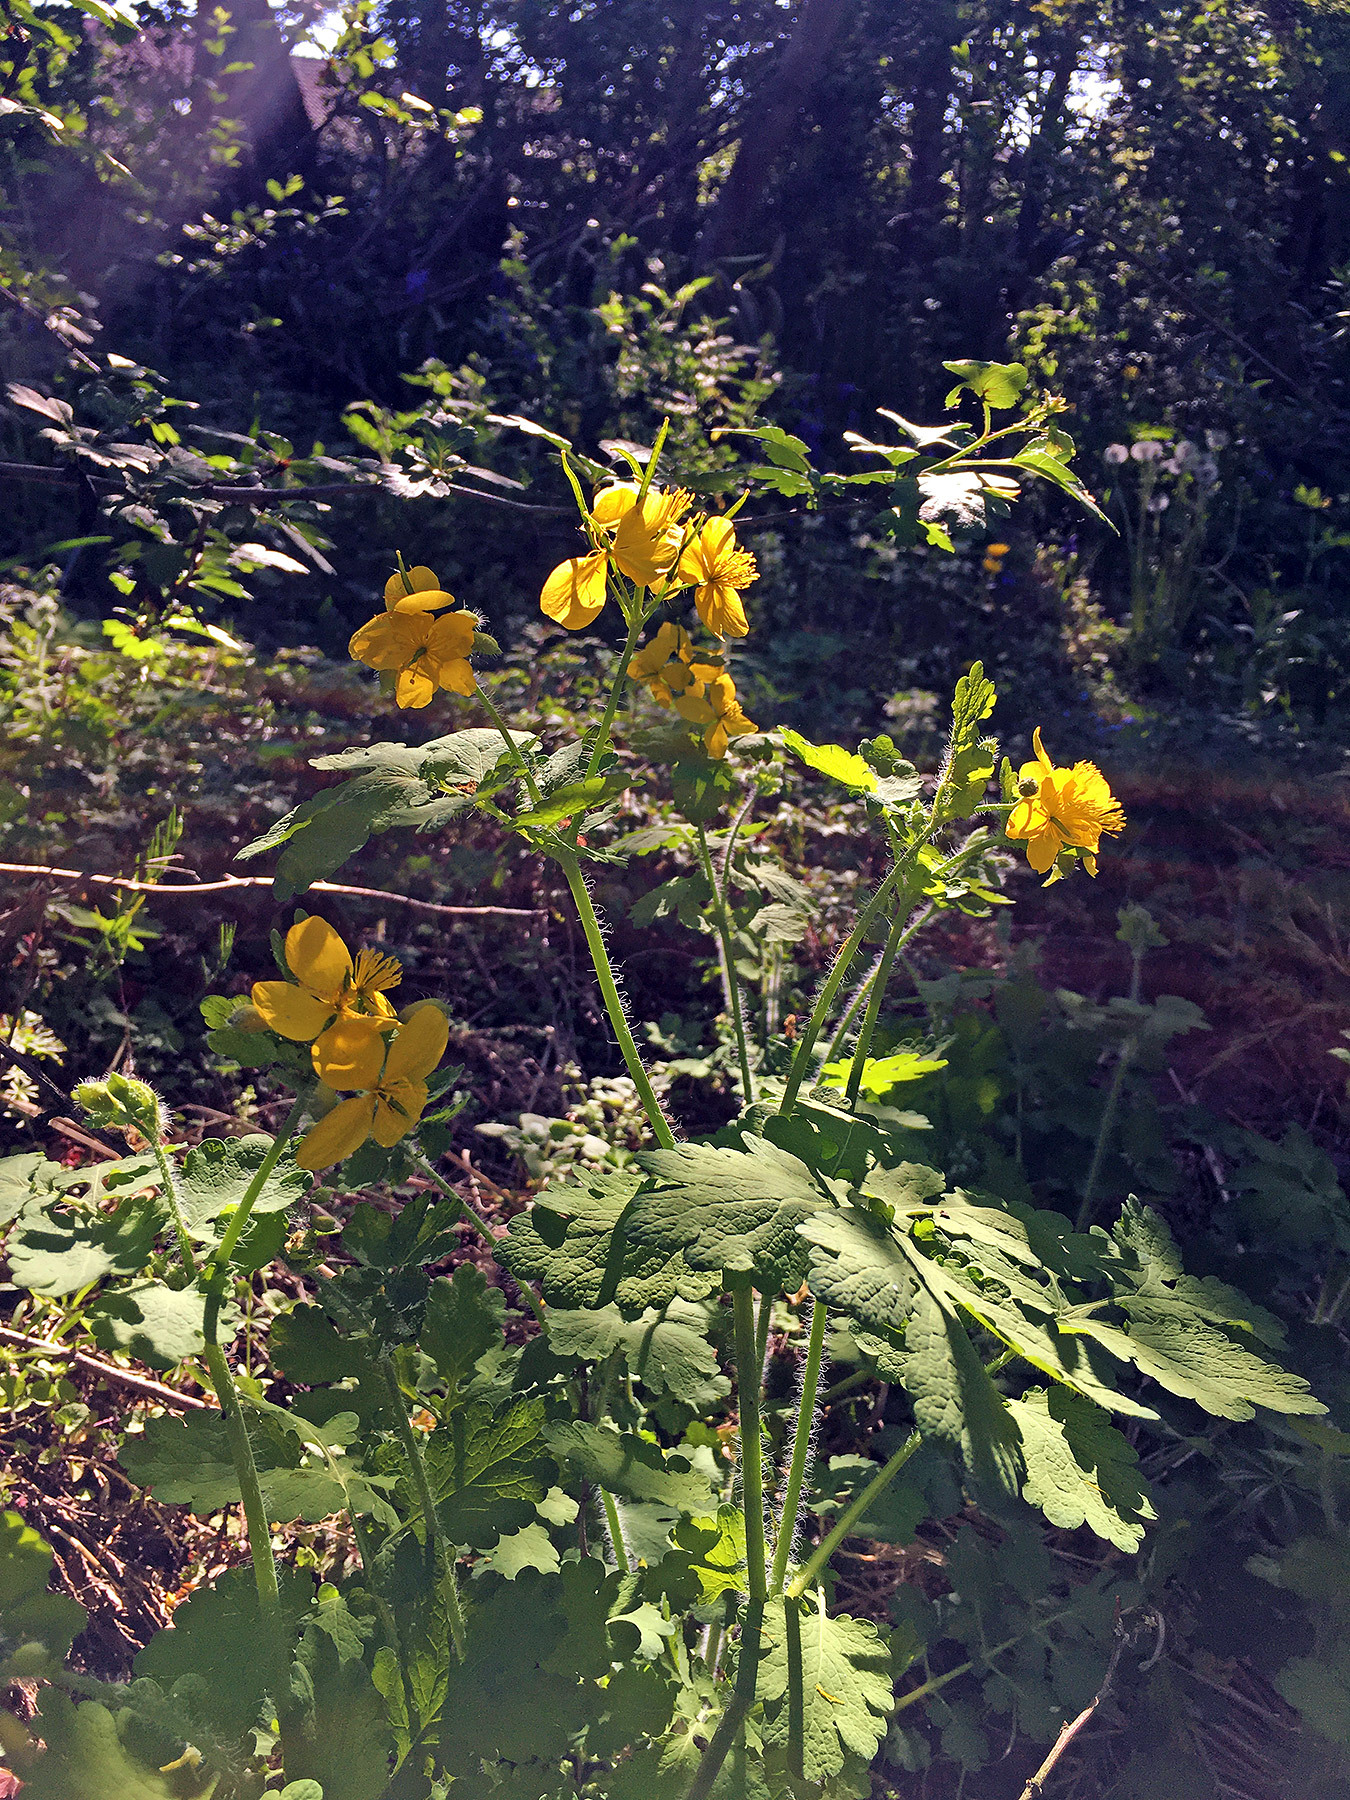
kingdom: Plantae
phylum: Tracheophyta
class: Magnoliopsida
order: Ranunculales
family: Papaveraceae
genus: Chelidonium
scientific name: Chelidonium majus
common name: Greater celandine
